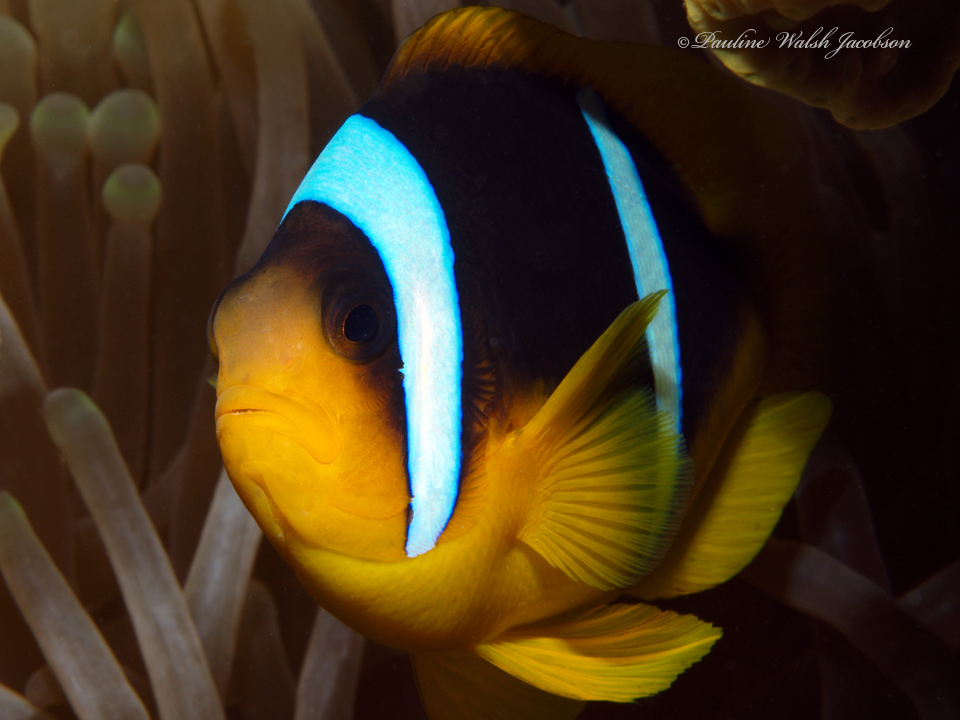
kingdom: Animalia
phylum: Chordata
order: Perciformes
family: Pomacentridae
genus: Amphiprion
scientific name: Amphiprion bicinctus
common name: Two-banded anemonefish
